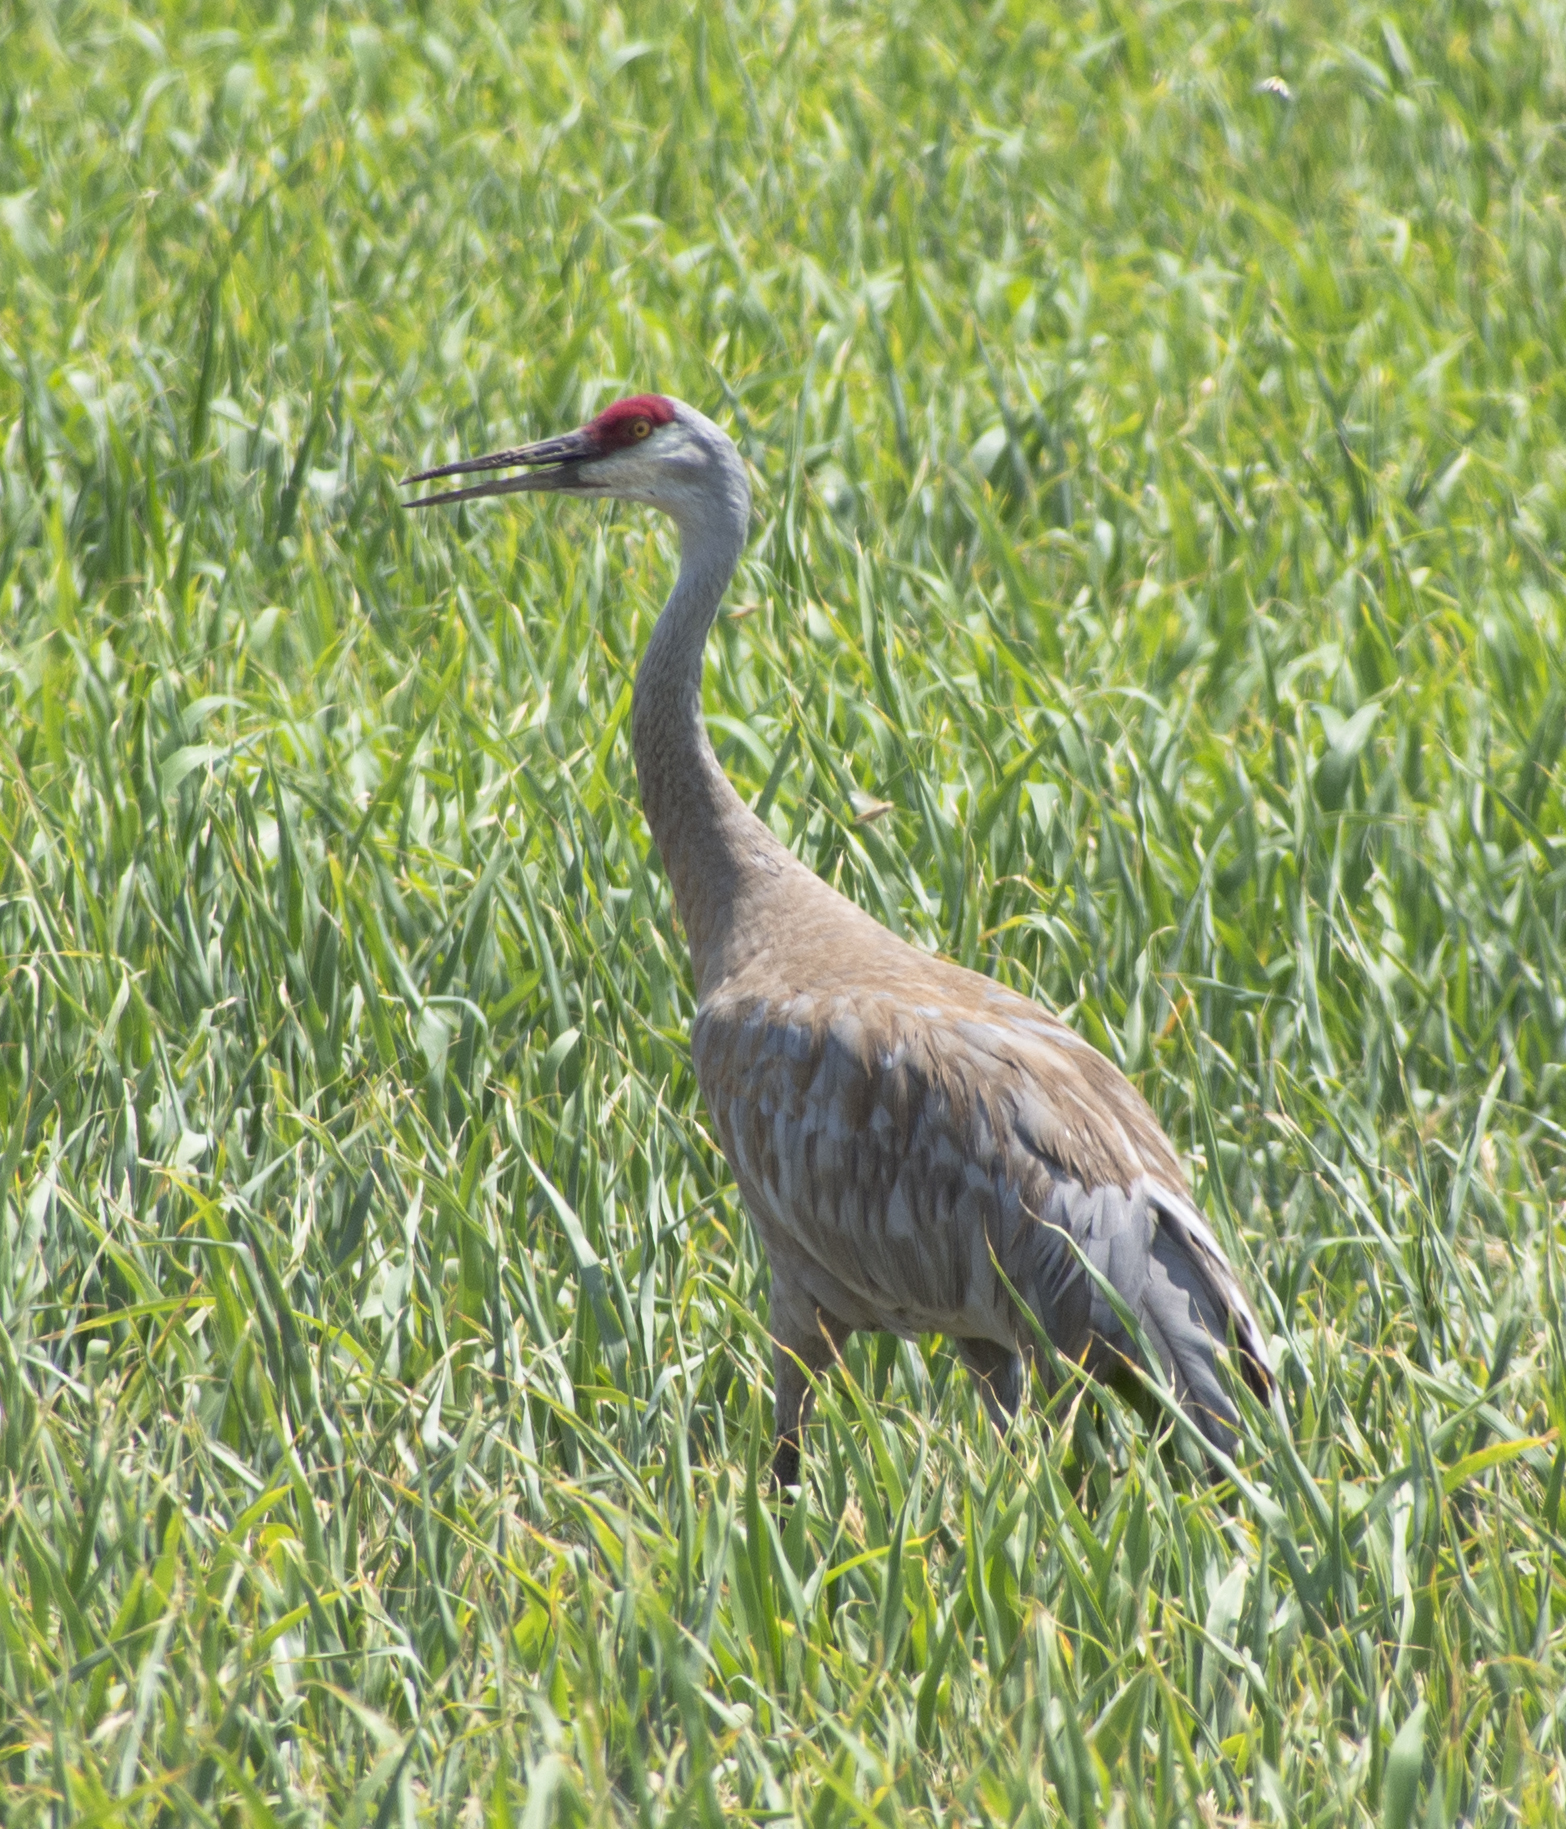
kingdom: Animalia
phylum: Chordata
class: Aves
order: Gruiformes
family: Gruidae
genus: Grus
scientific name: Grus canadensis
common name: Sandhill crane
